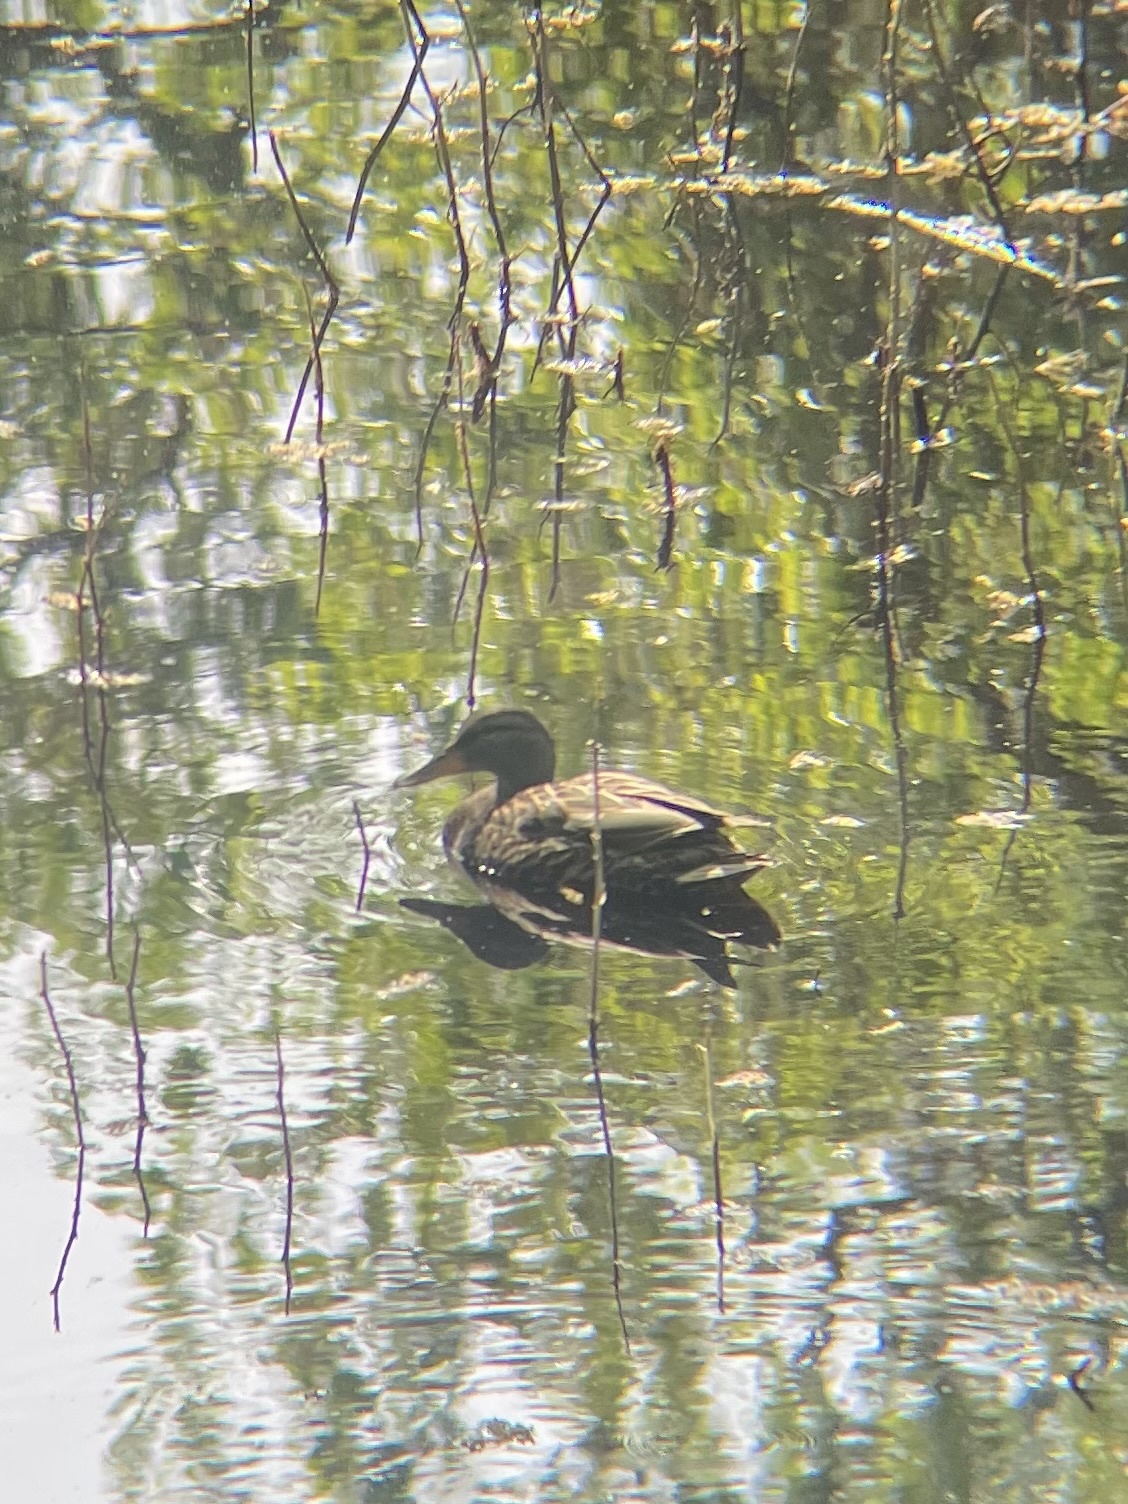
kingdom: Animalia
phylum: Chordata
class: Aves
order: Anseriformes
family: Anatidae
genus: Anas
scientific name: Anas platyrhynchos
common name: Mallard
